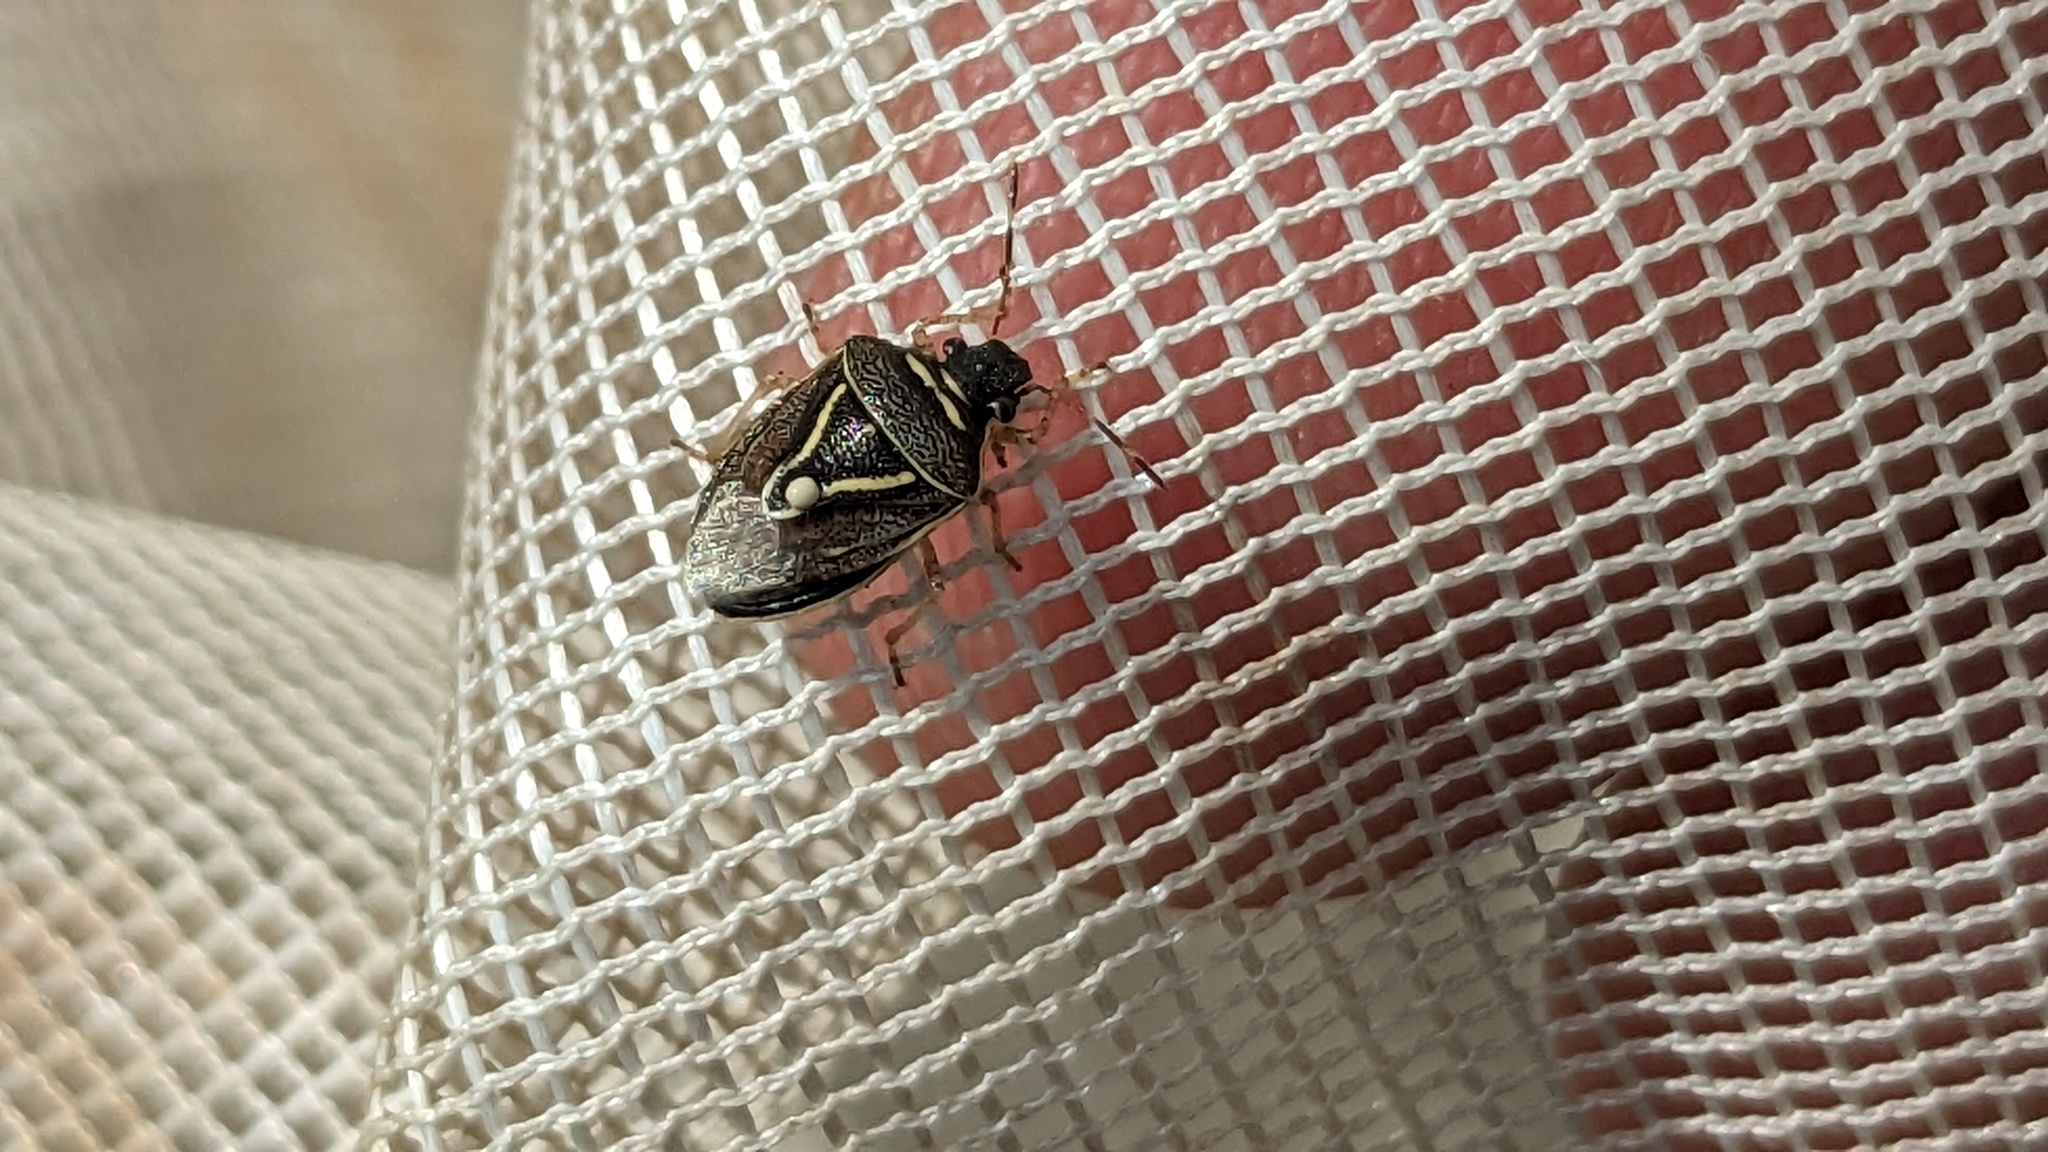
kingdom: Animalia
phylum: Arthropoda
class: Insecta
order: Hemiptera
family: Pentatomidae
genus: Mormidea
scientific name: Mormidea lugens
